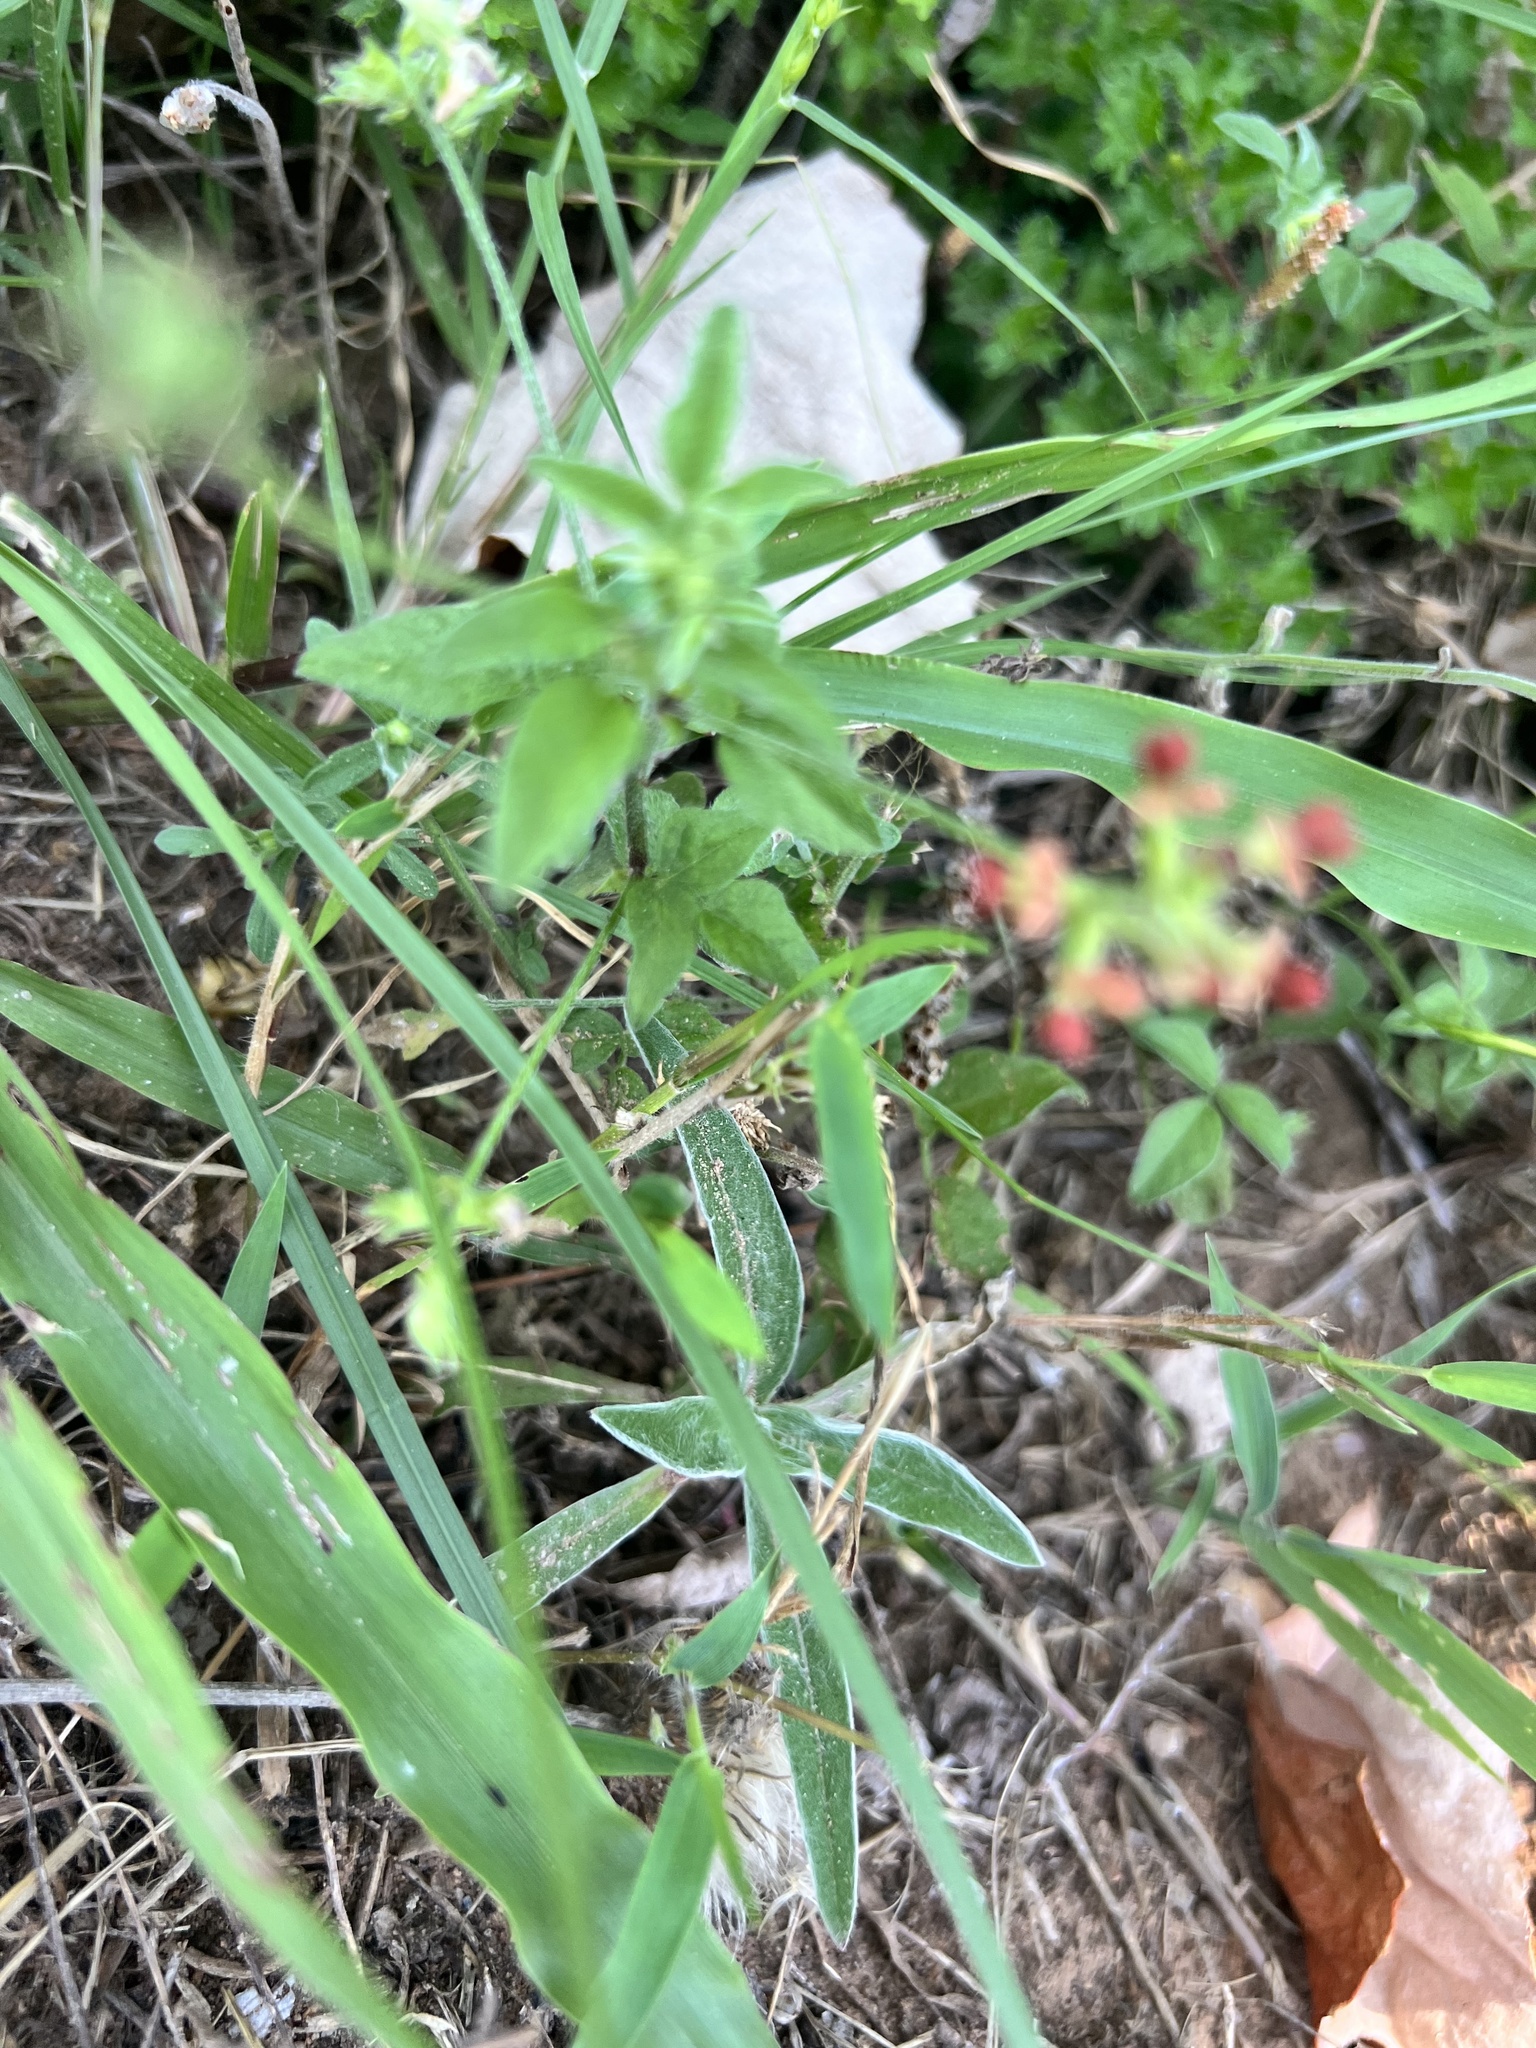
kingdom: Plantae
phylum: Tracheophyta
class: Magnoliopsida
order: Fabales
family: Fabaceae
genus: Pediomelum
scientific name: Pediomelum rhombifolium
